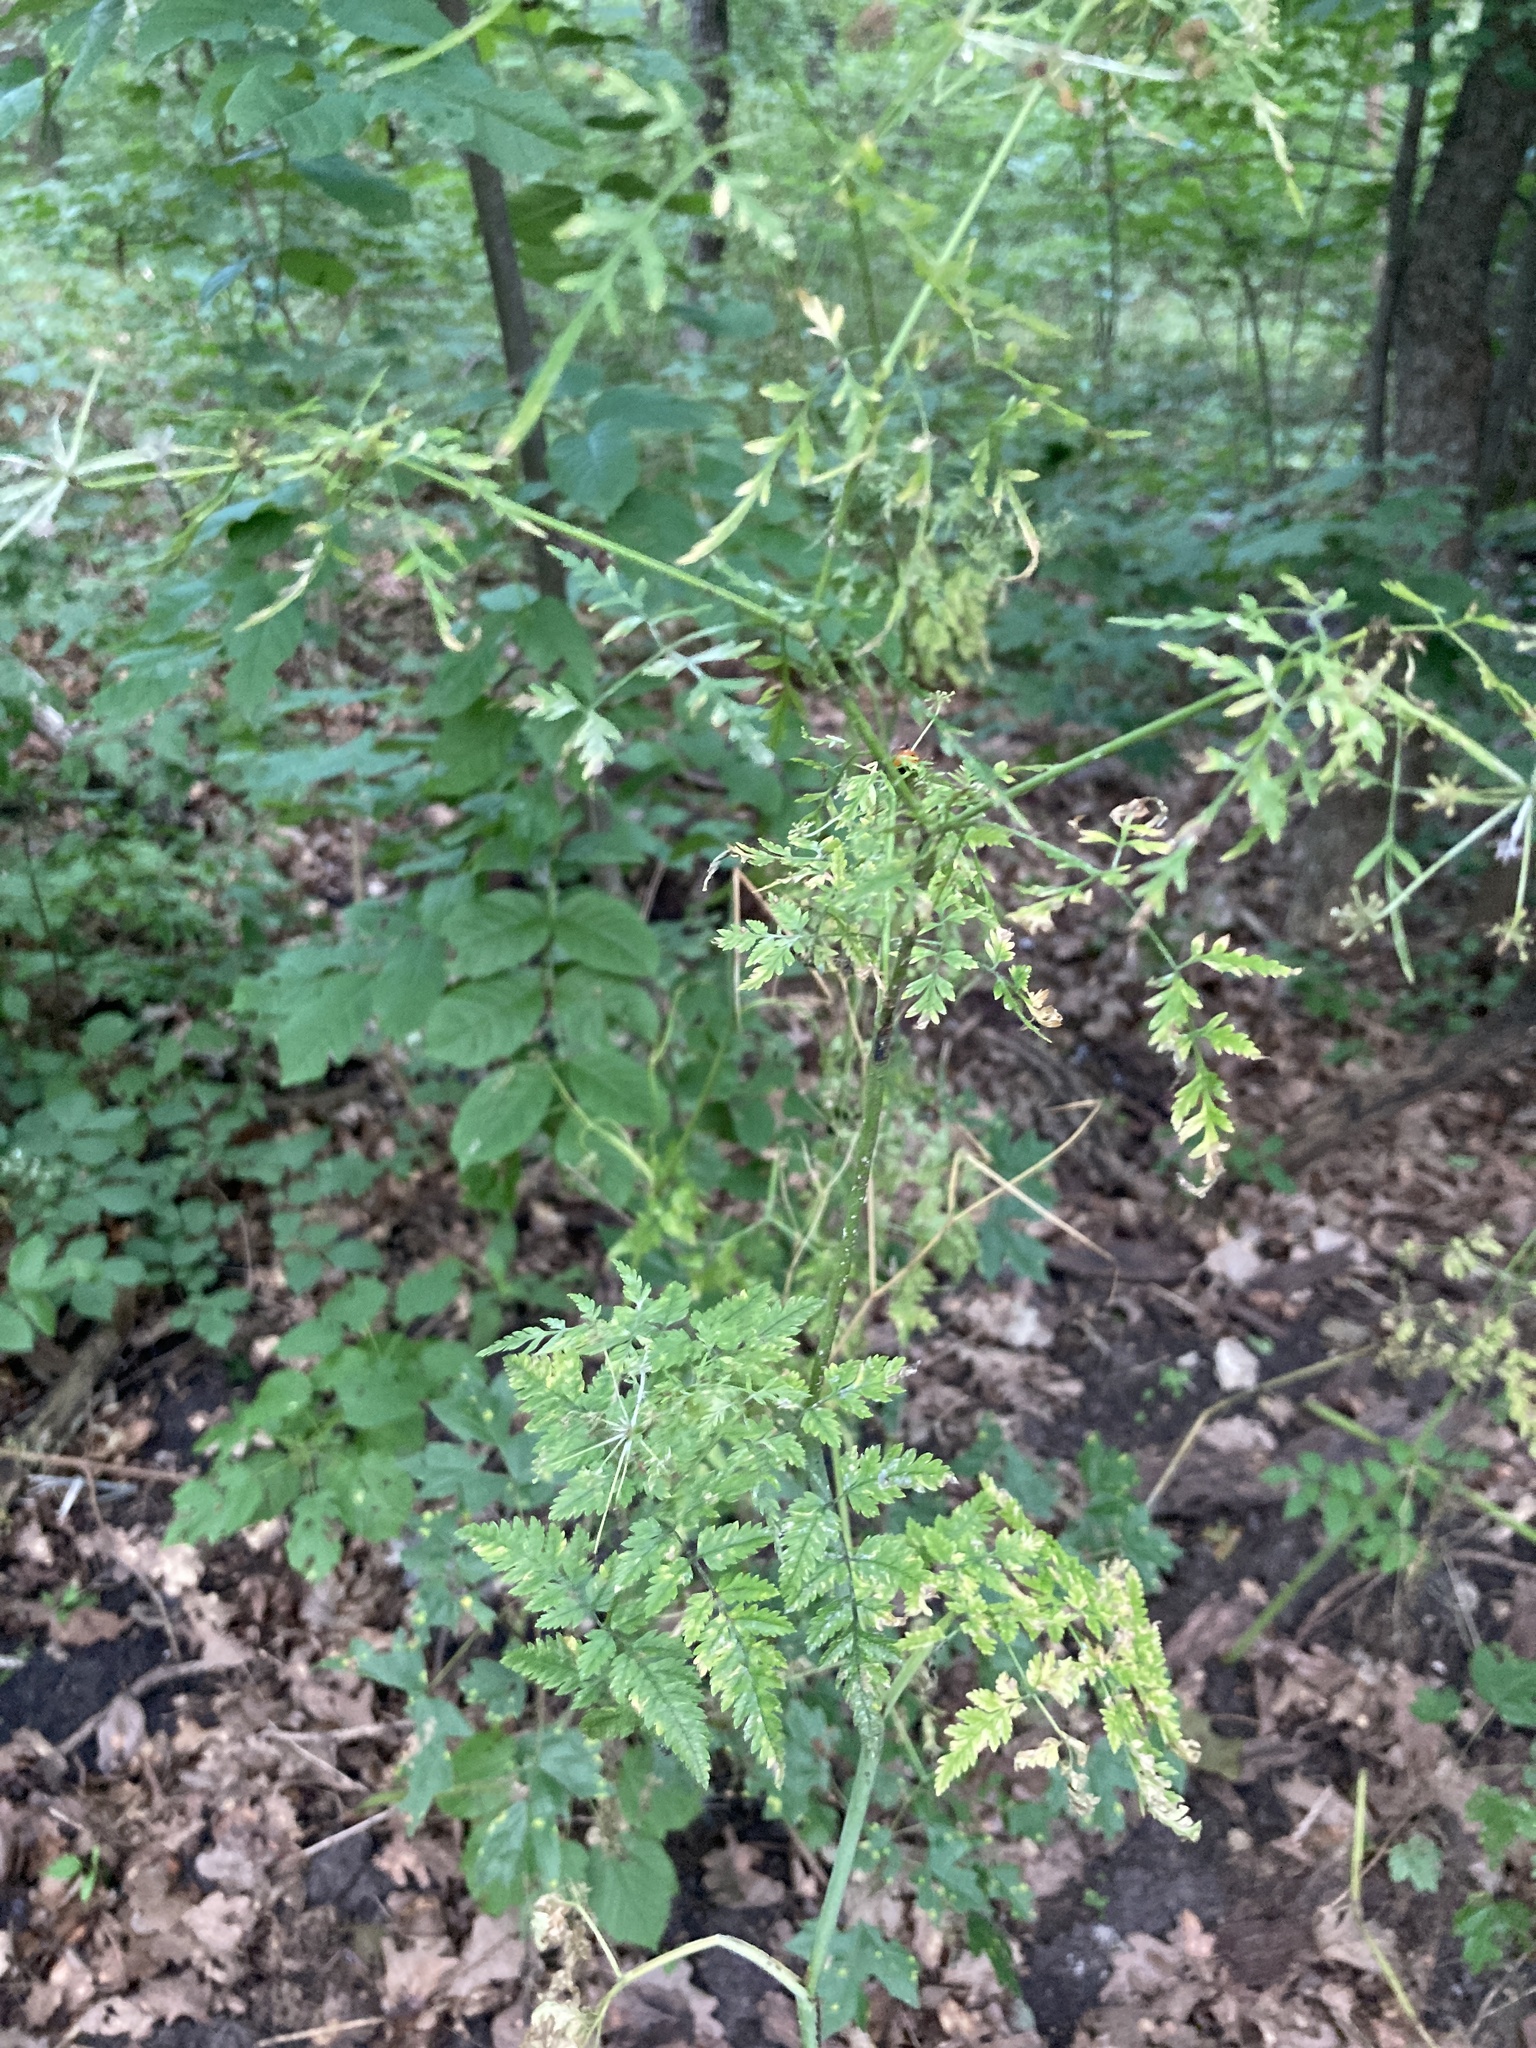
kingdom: Plantae
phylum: Tracheophyta
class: Magnoliopsida
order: Apiales
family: Apiaceae
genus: Conium
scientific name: Conium maculatum
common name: Hemlock
